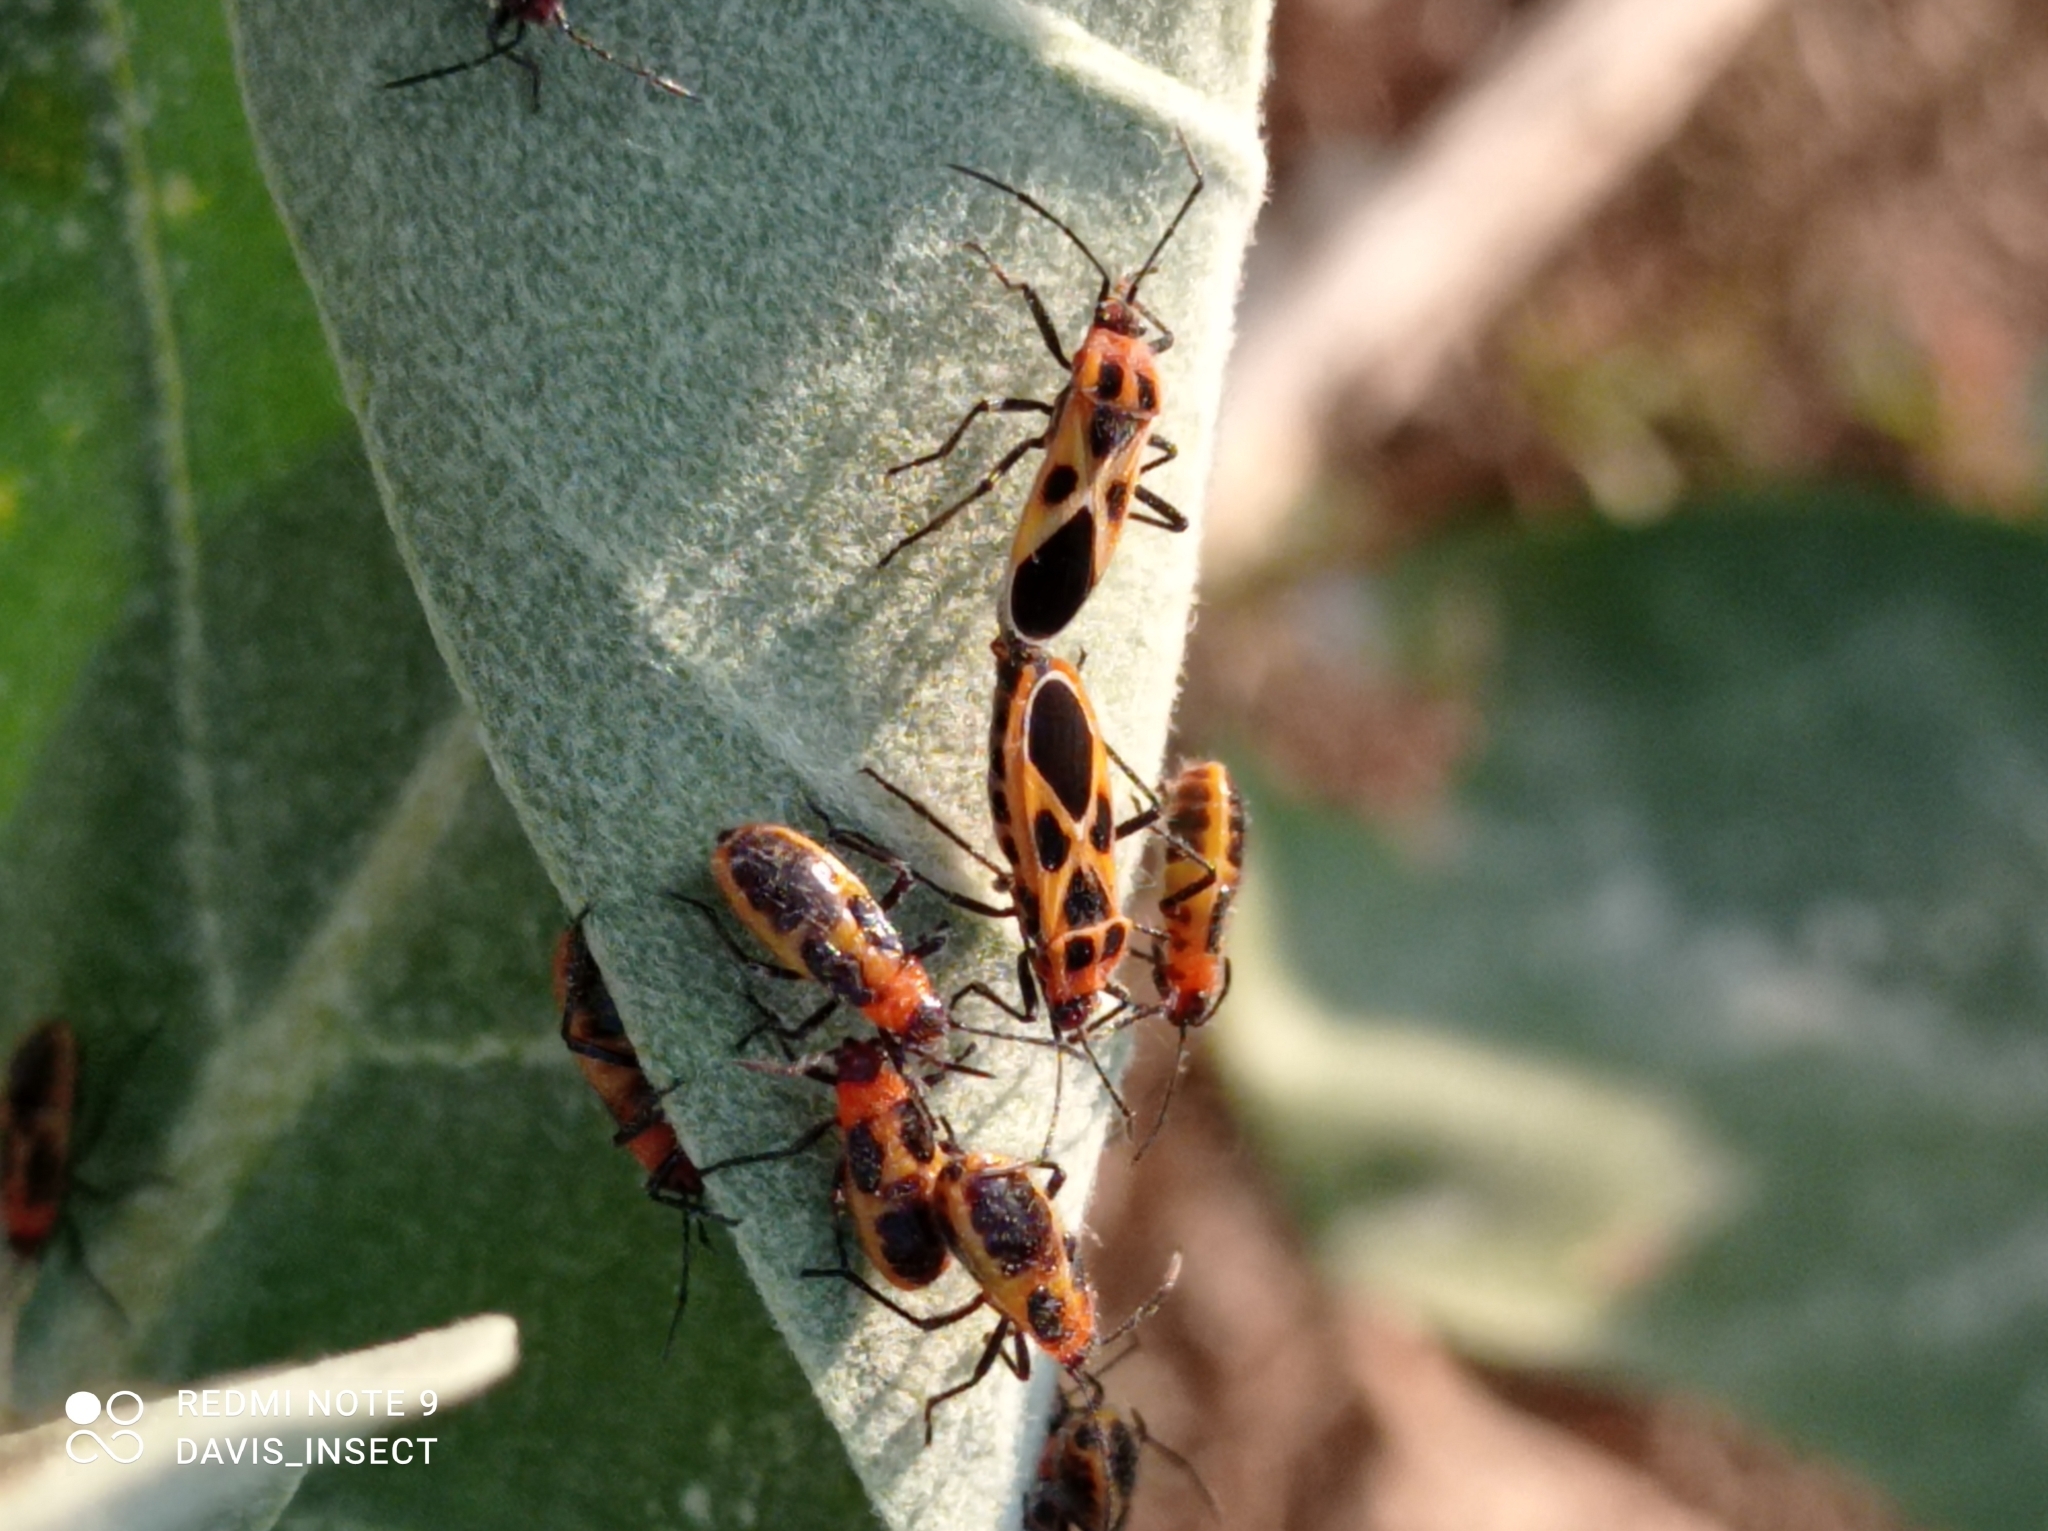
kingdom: Animalia
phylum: Arthropoda
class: Insecta
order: Hemiptera
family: Lygaeidae
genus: Tropidothorax
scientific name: Tropidothorax fimbriatus
